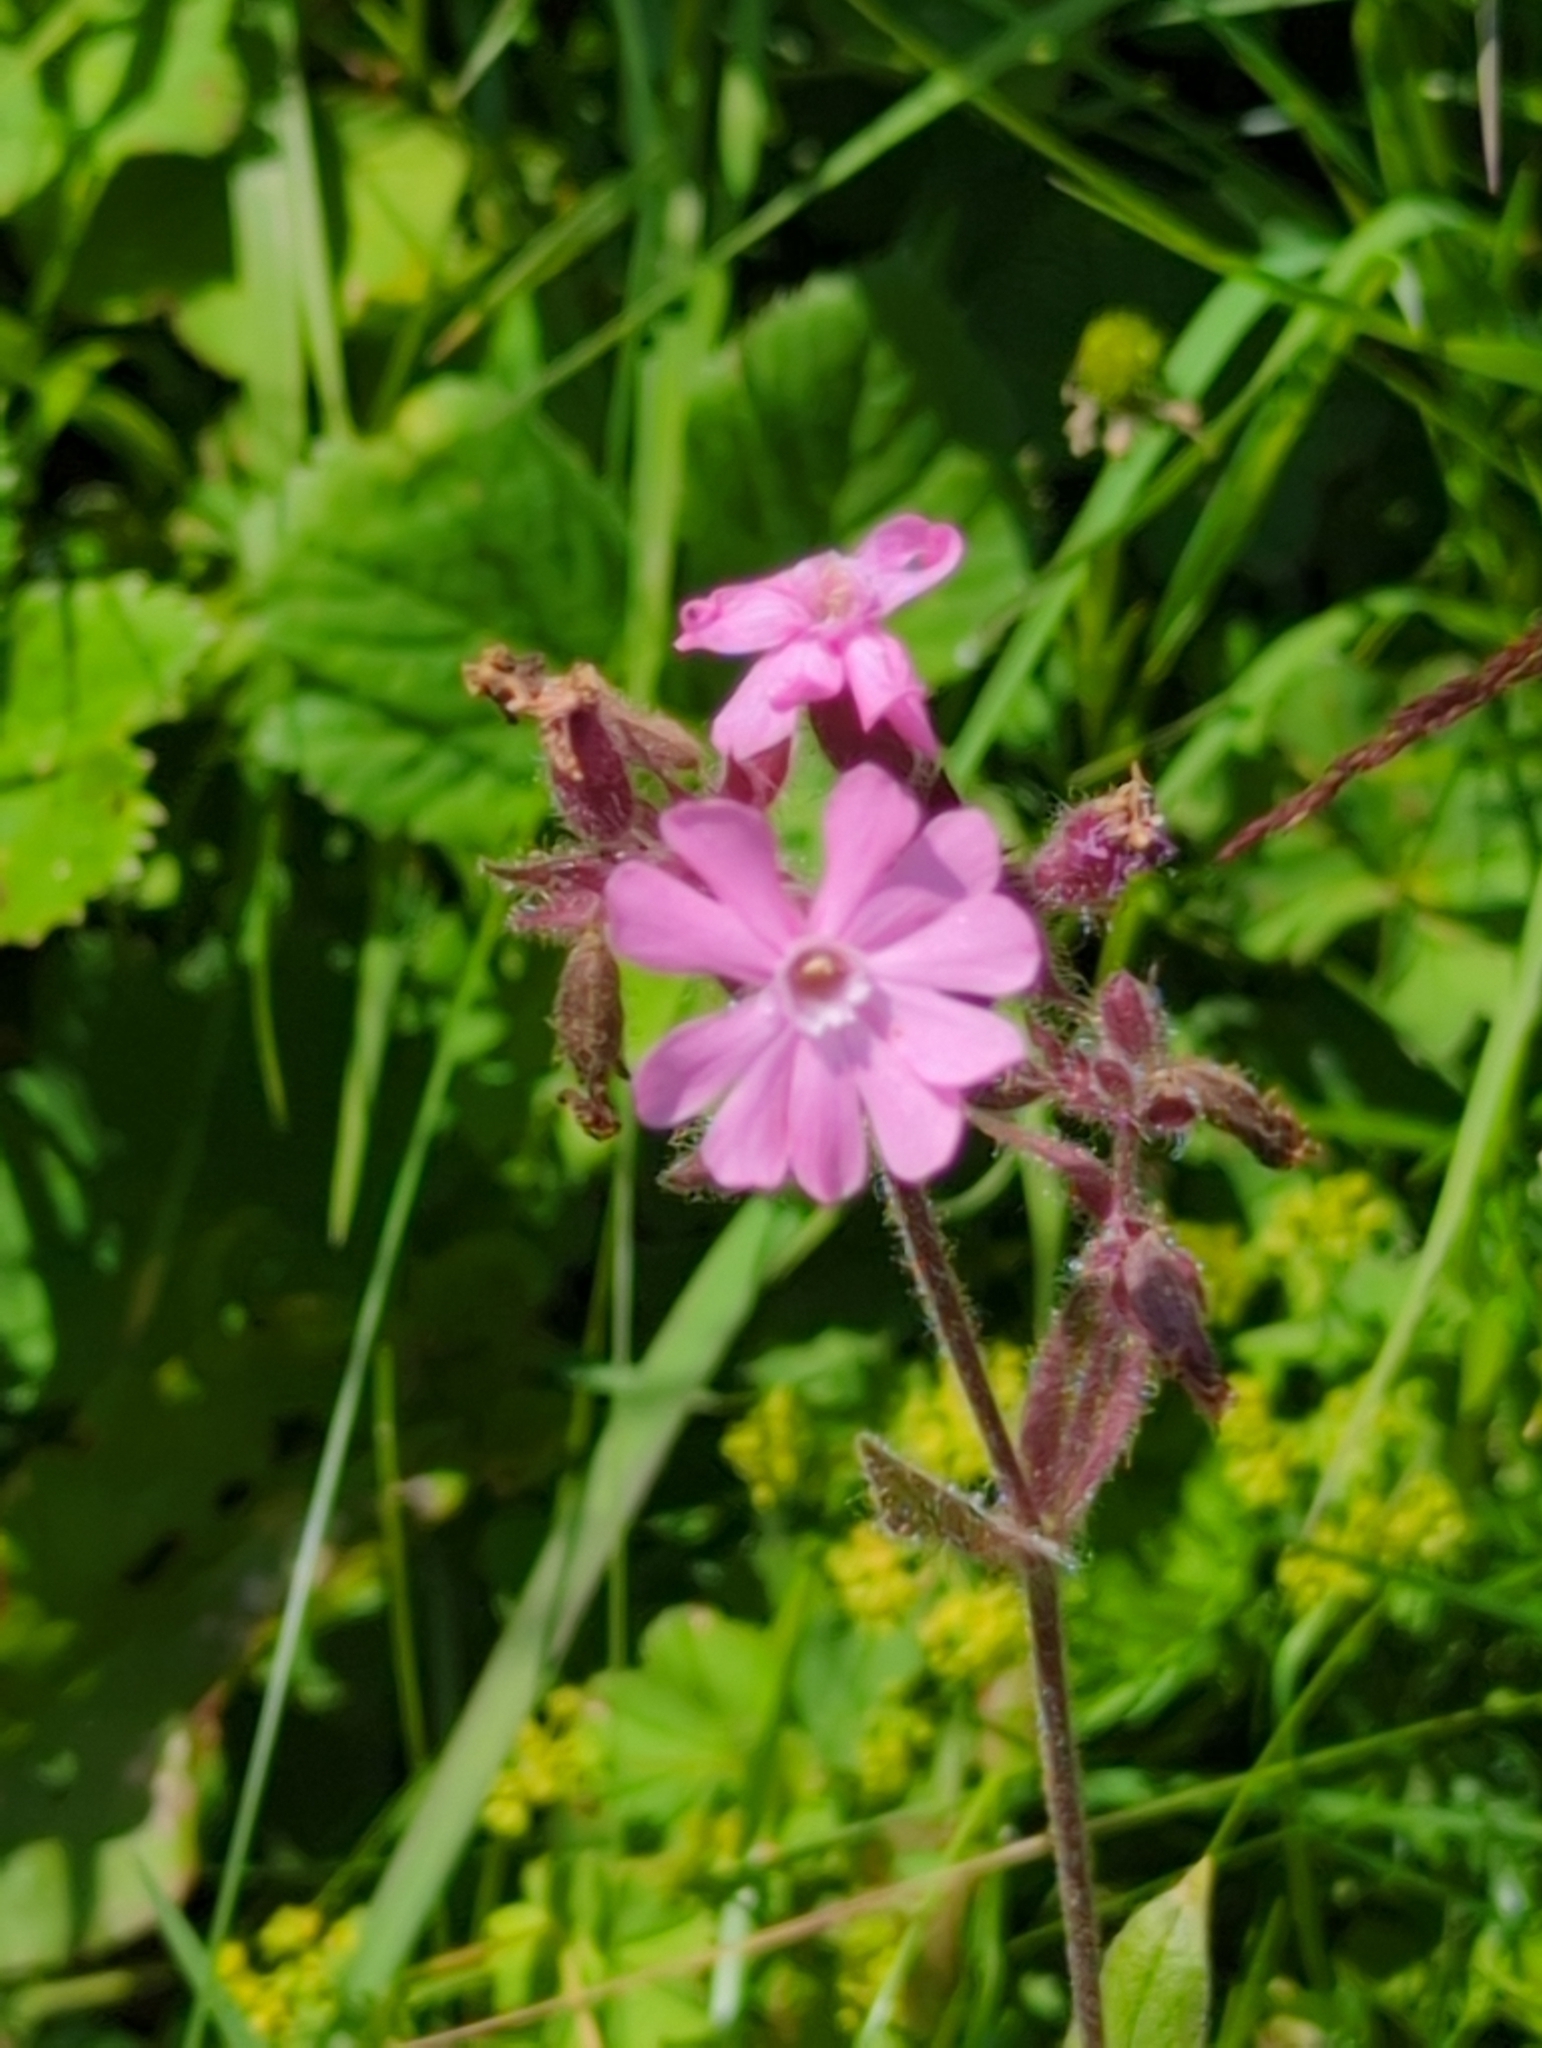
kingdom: Plantae
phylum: Tracheophyta
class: Magnoliopsida
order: Caryophyllales
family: Caryophyllaceae
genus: Silene
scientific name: Silene dioica
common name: Red campion
